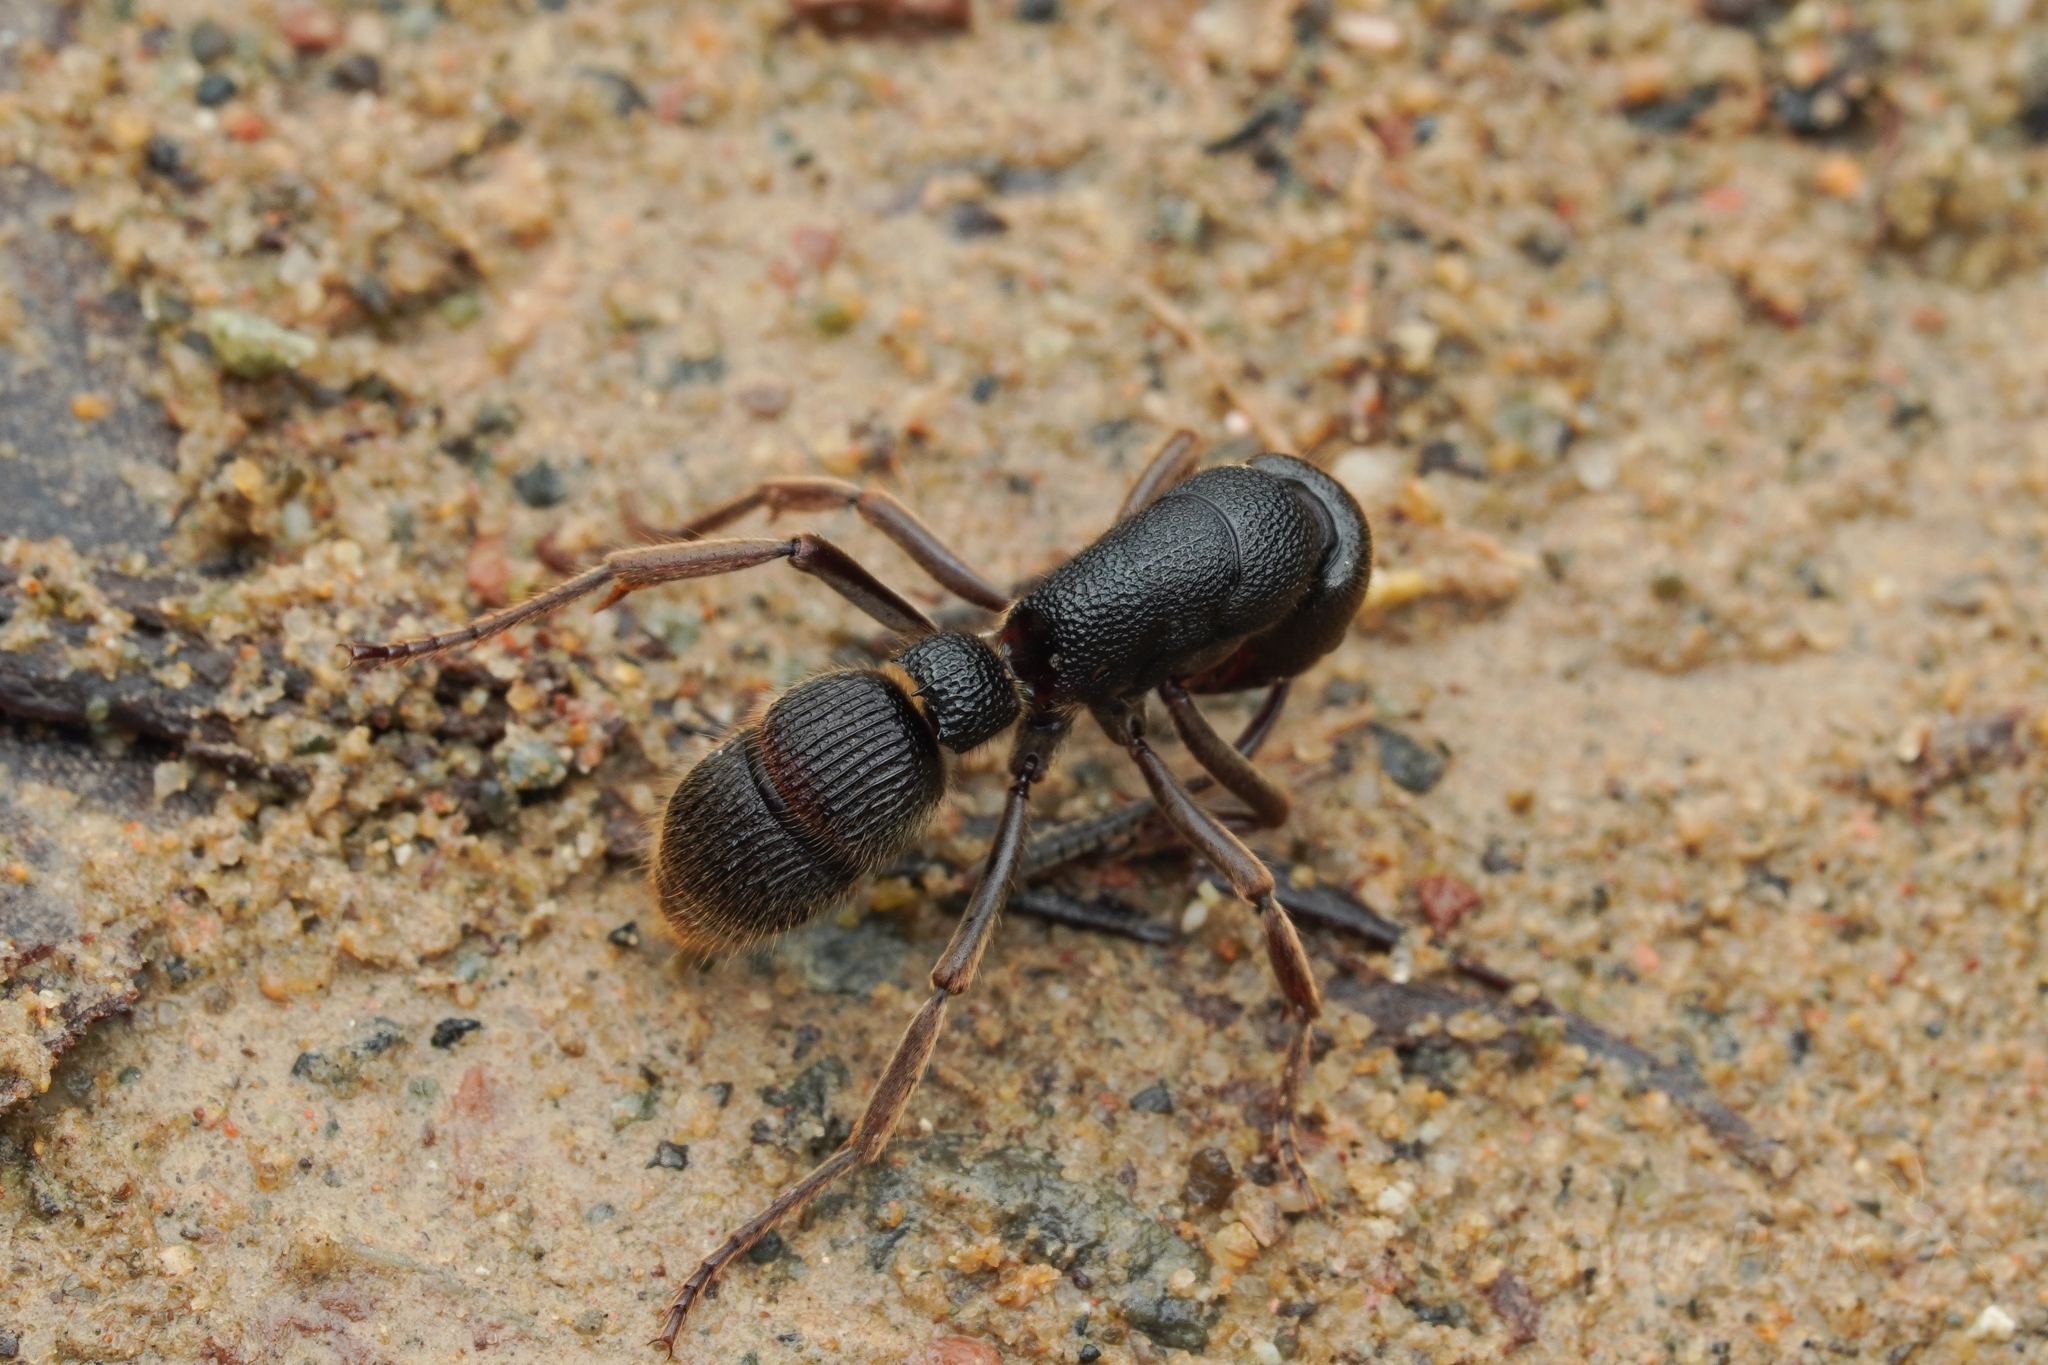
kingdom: Animalia
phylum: Arthropoda
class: Insecta
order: Hymenoptera
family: Formicidae
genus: Pseudoneoponera
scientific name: Pseudoneoponera
